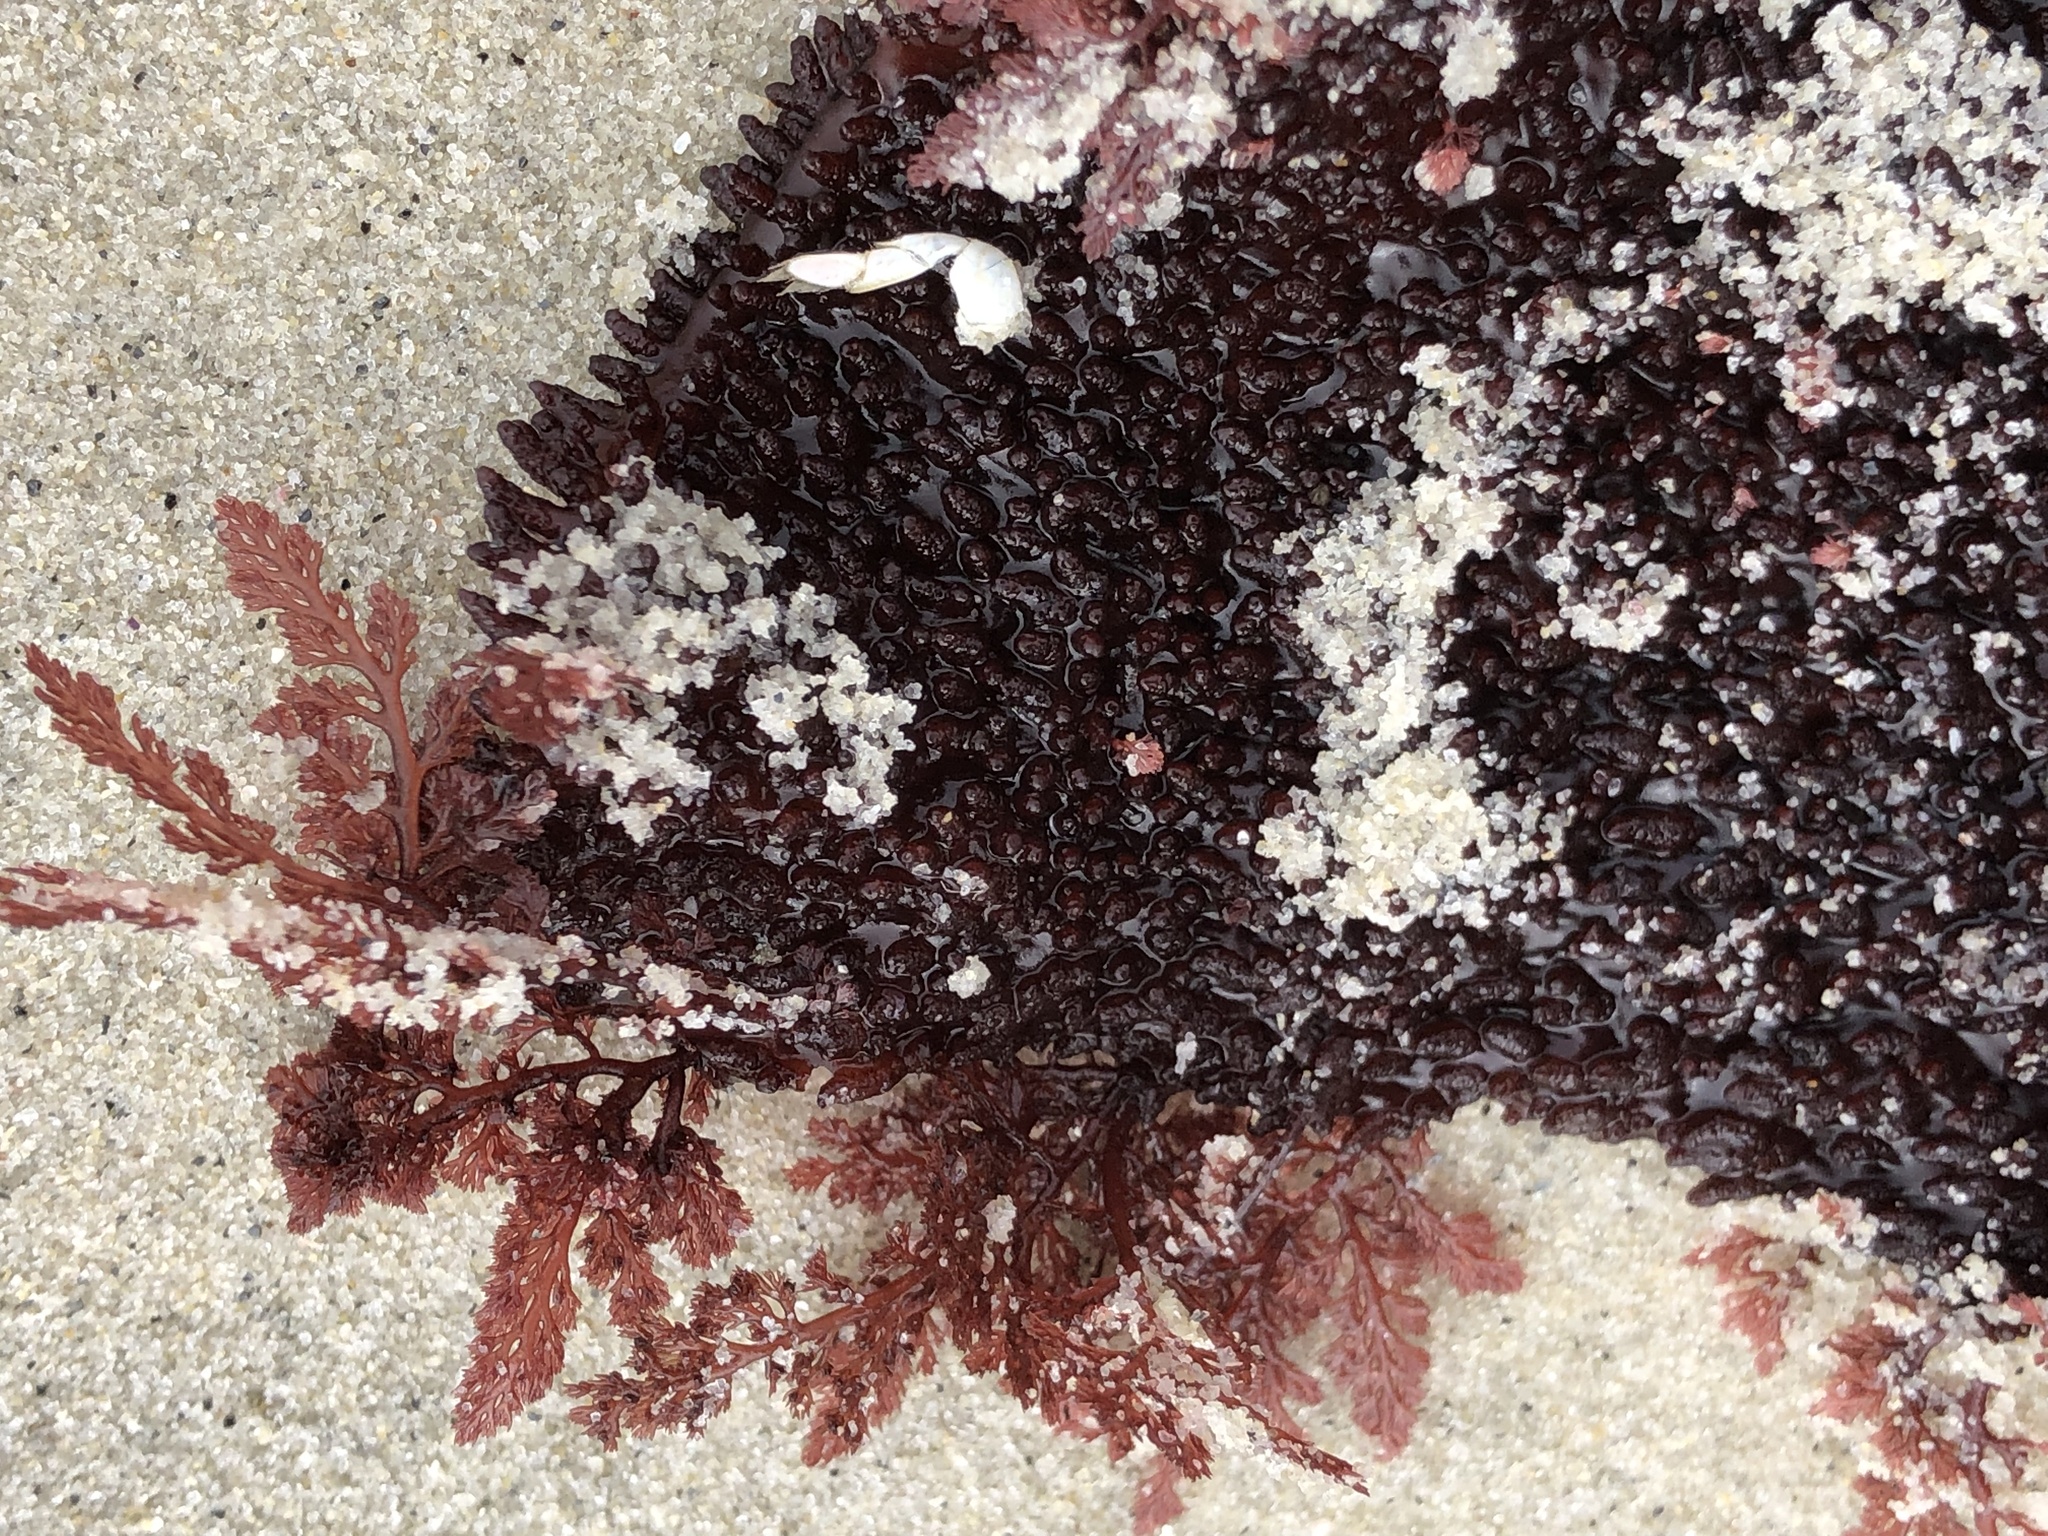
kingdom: Plantae
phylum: Rhodophyta
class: Florideophyceae
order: Ceramiales
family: Ceramiaceae
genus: Microcladia
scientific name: Microcladia coulteri
